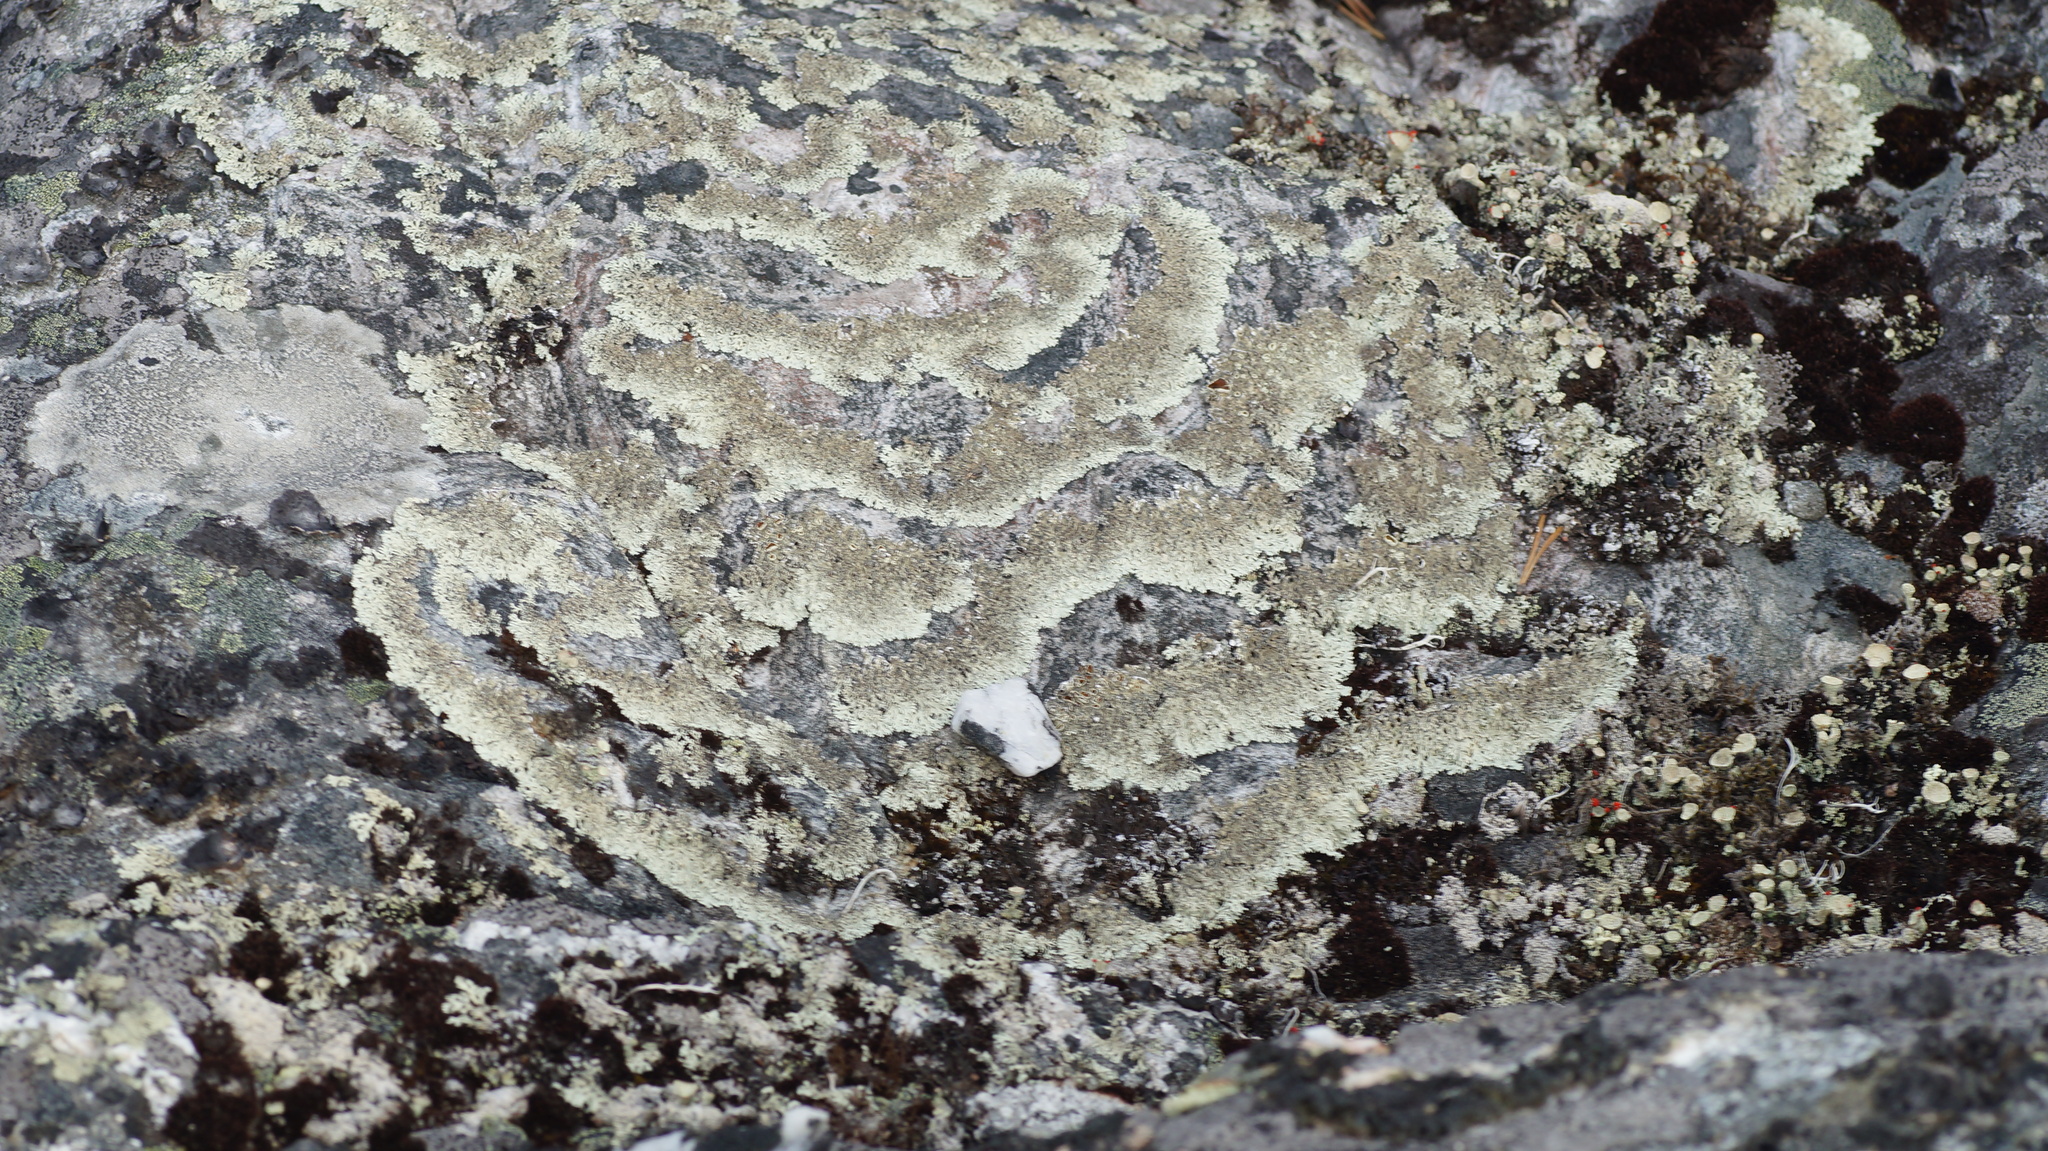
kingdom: Fungi
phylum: Ascomycota
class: Lecanoromycetes
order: Lecanorales
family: Parmeliaceae
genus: Arctoparmelia
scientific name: Arctoparmelia centrifuga
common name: Concentric ring lichen
